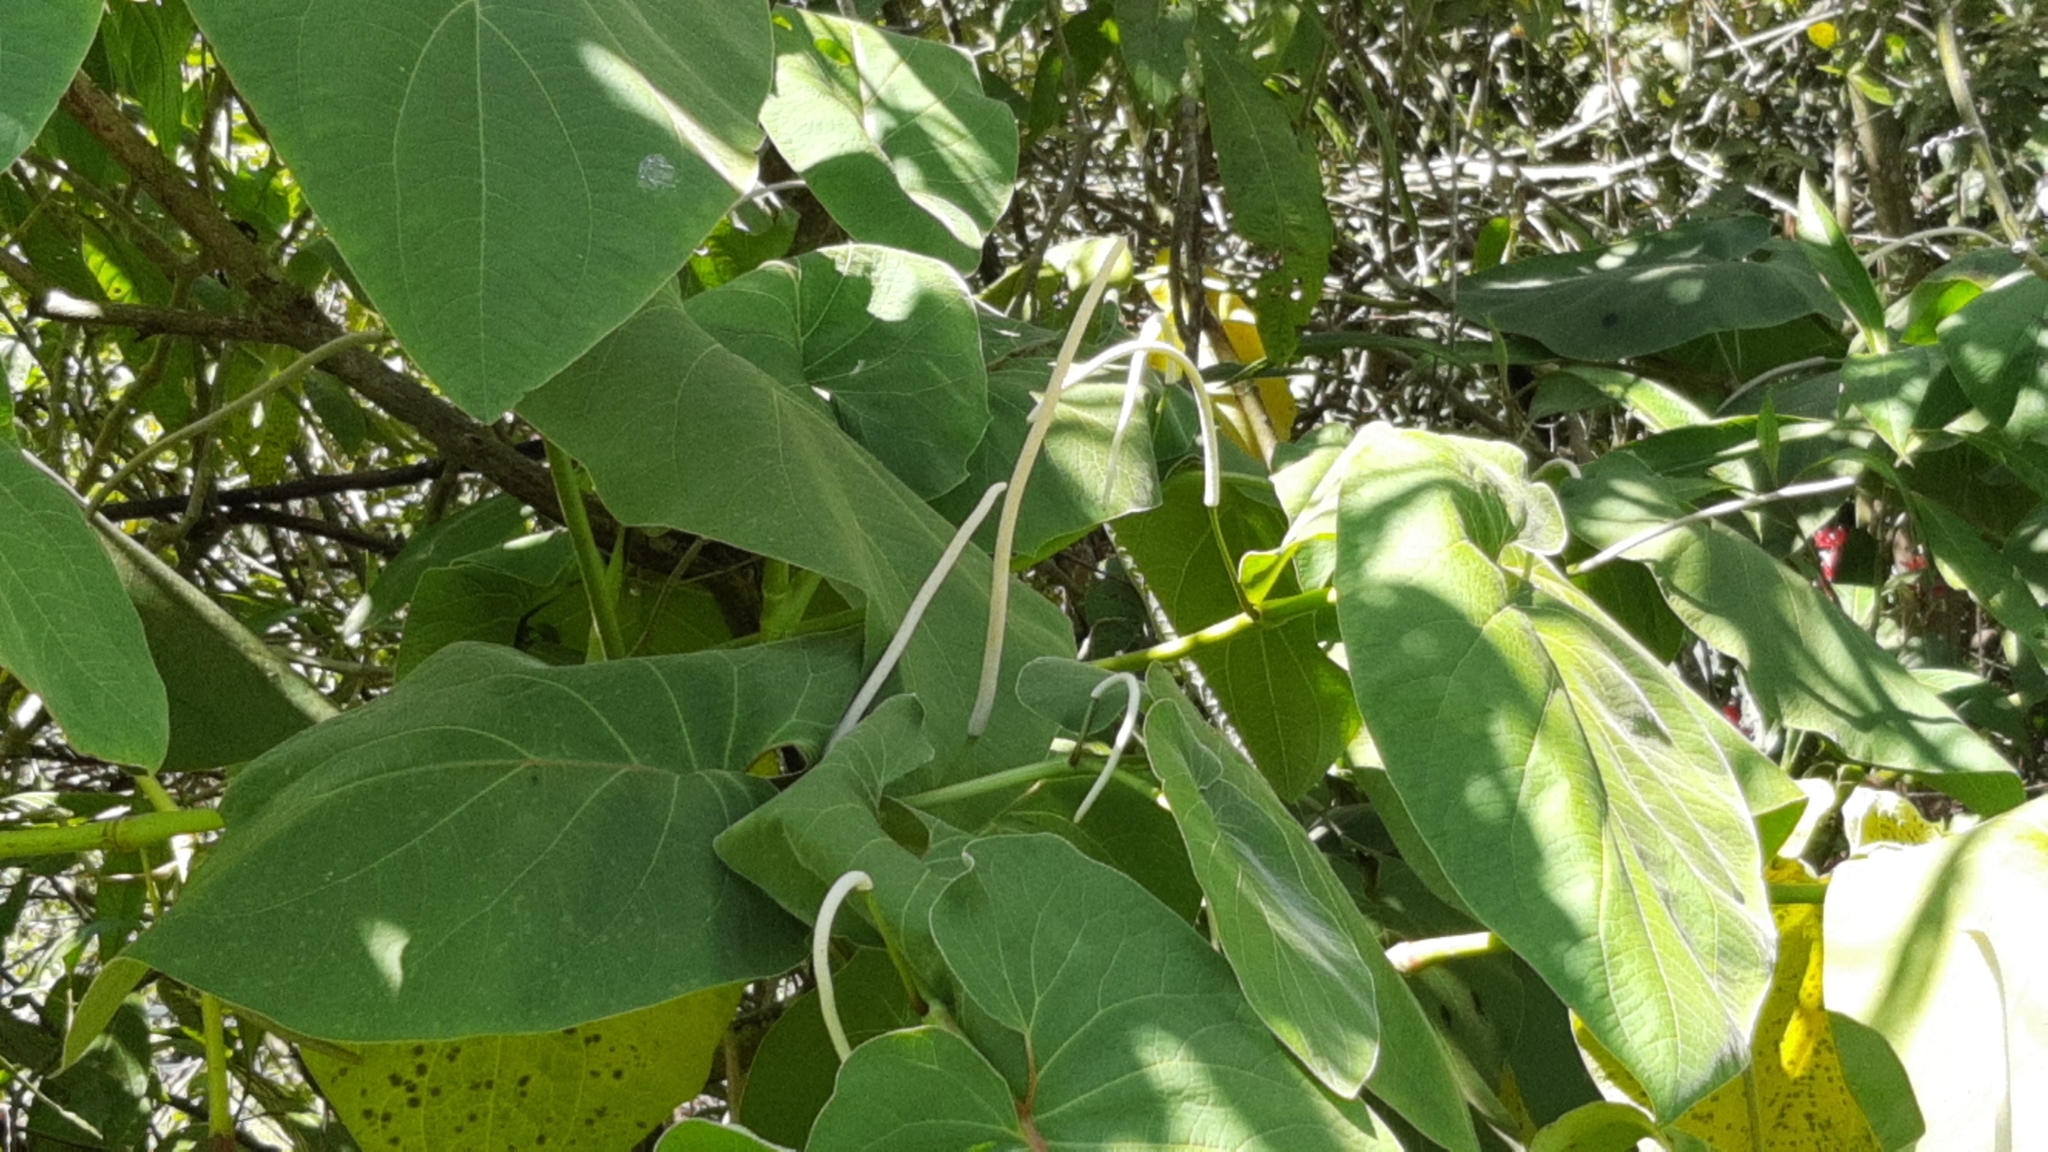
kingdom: Plantae
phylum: Tracheophyta
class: Magnoliopsida
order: Piperales
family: Piperaceae
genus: Piper
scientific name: Piper auritum
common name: Vera cruz pepper
